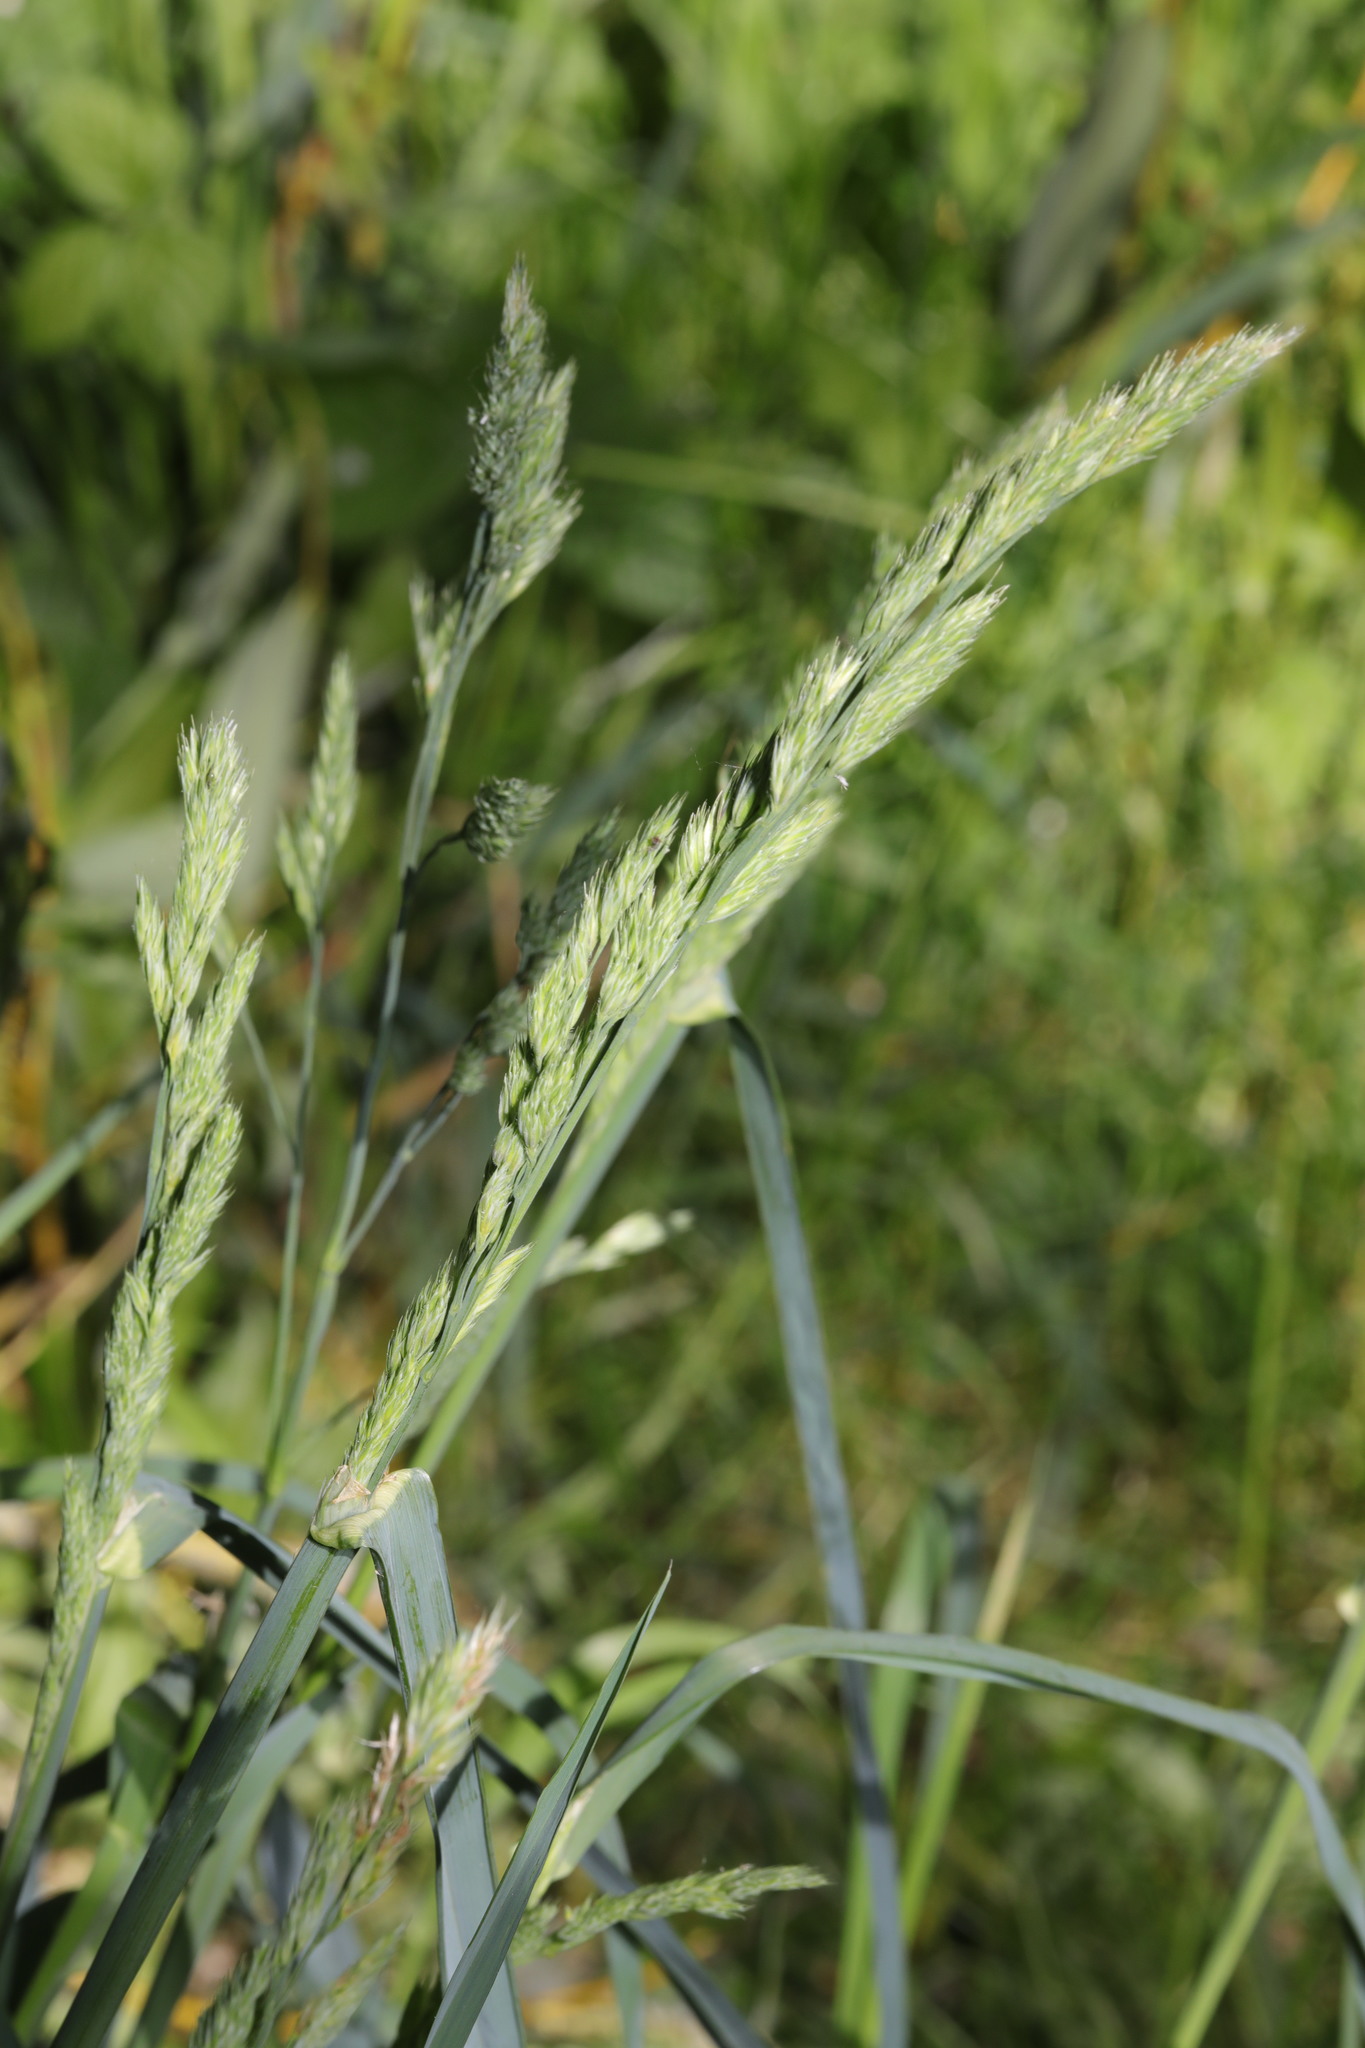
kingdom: Plantae
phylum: Tracheophyta
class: Liliopsida
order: Poales
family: Poaceae
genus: Dactylis
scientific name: Dactylis glomerata
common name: Orchardgrass
